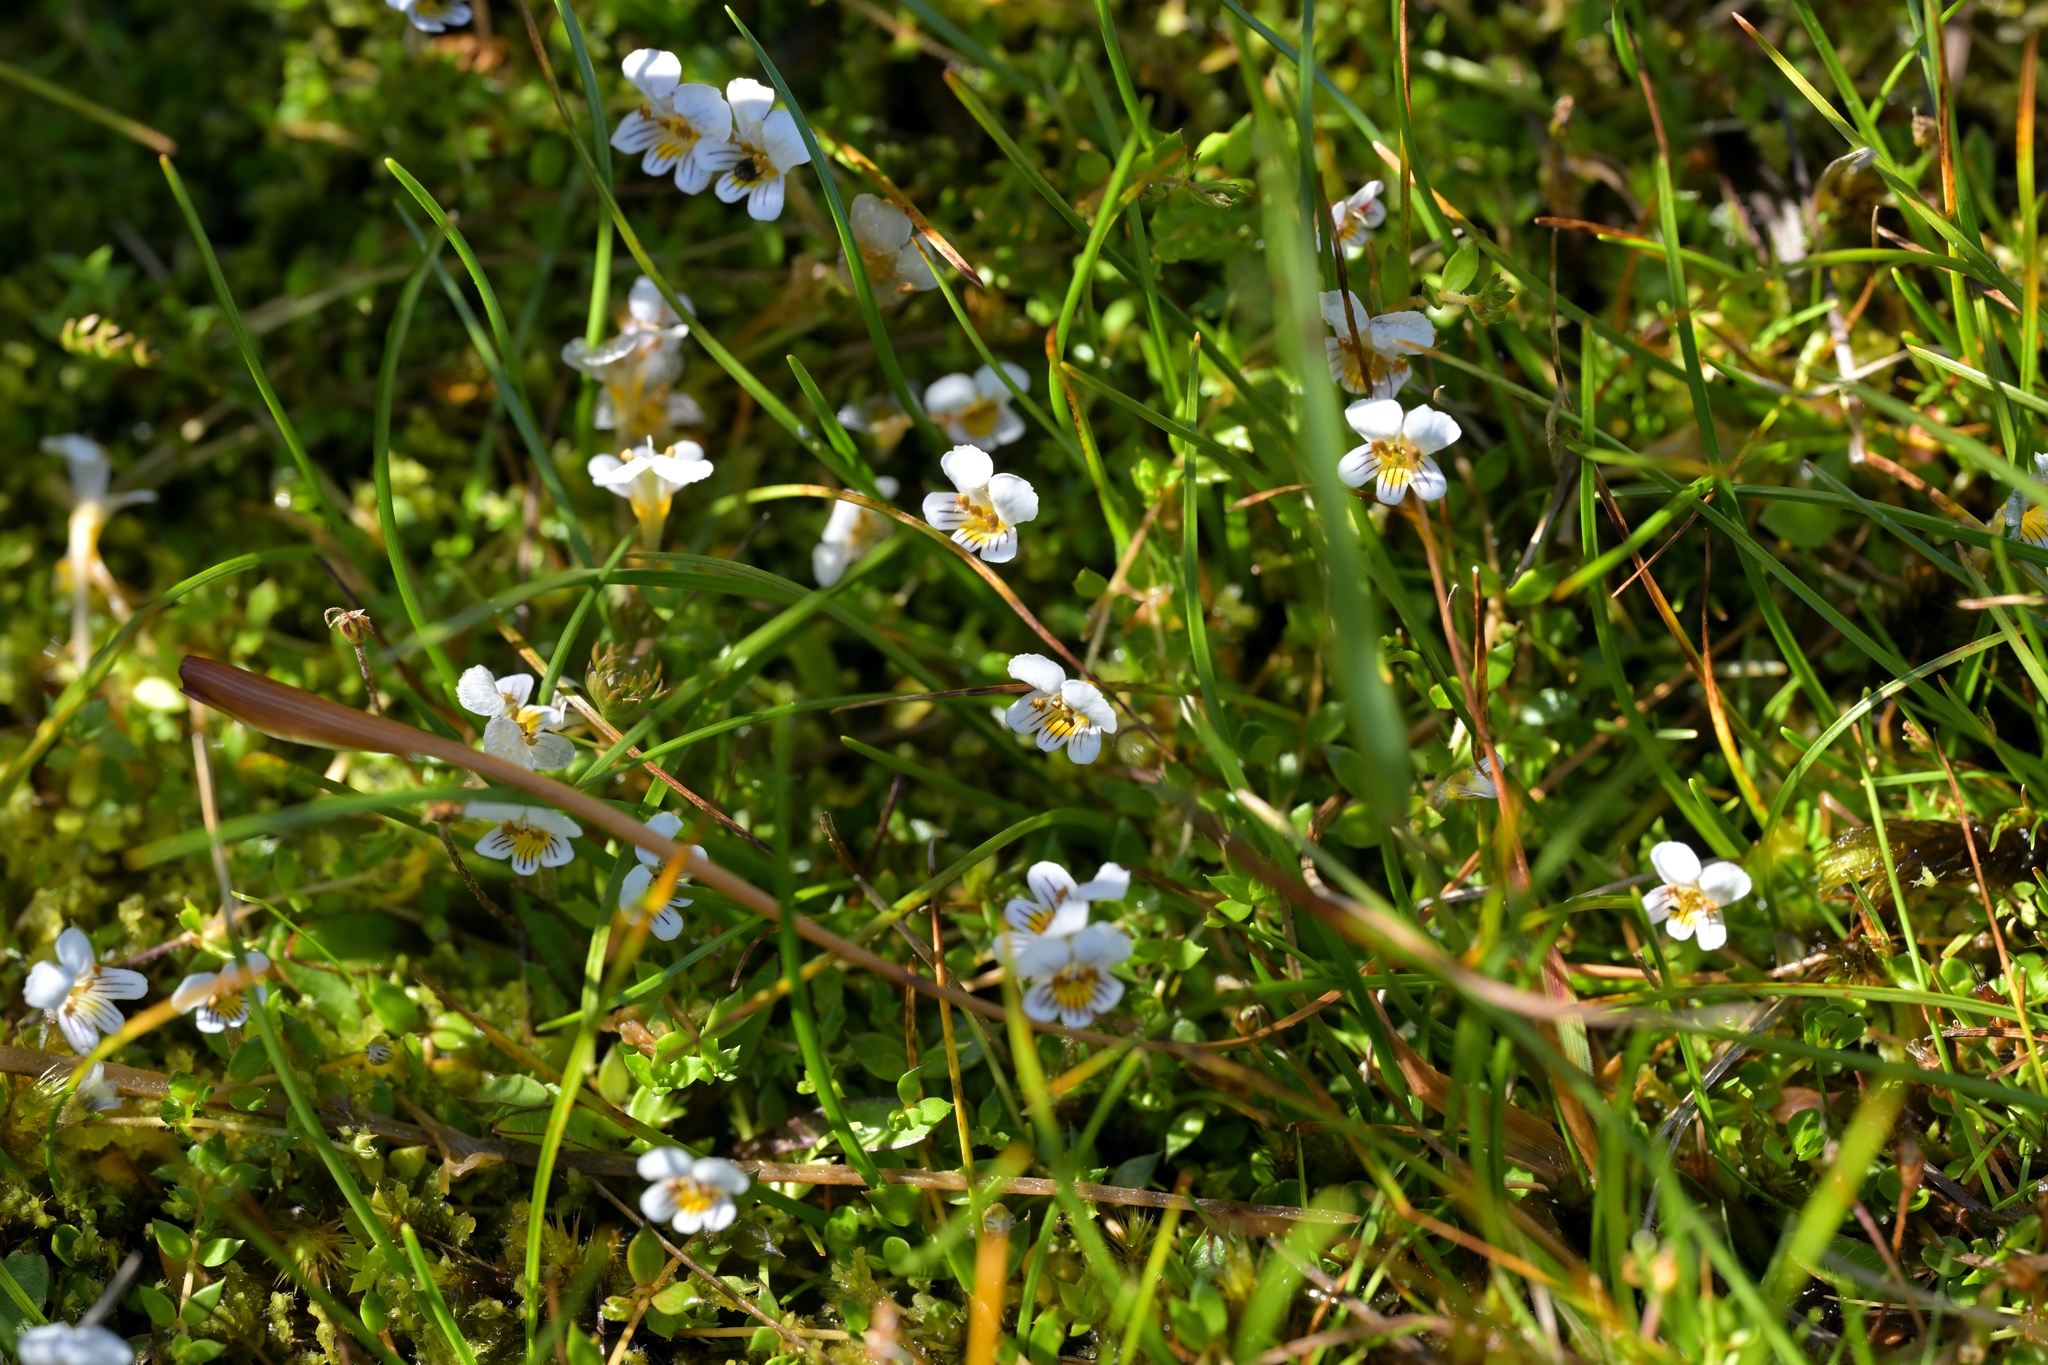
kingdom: Plantae
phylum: Tracheophyta
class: Magnoliopsida
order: Lamiales
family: Orobanchaceae
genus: Euphrasia
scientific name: Euphrasia disperma
